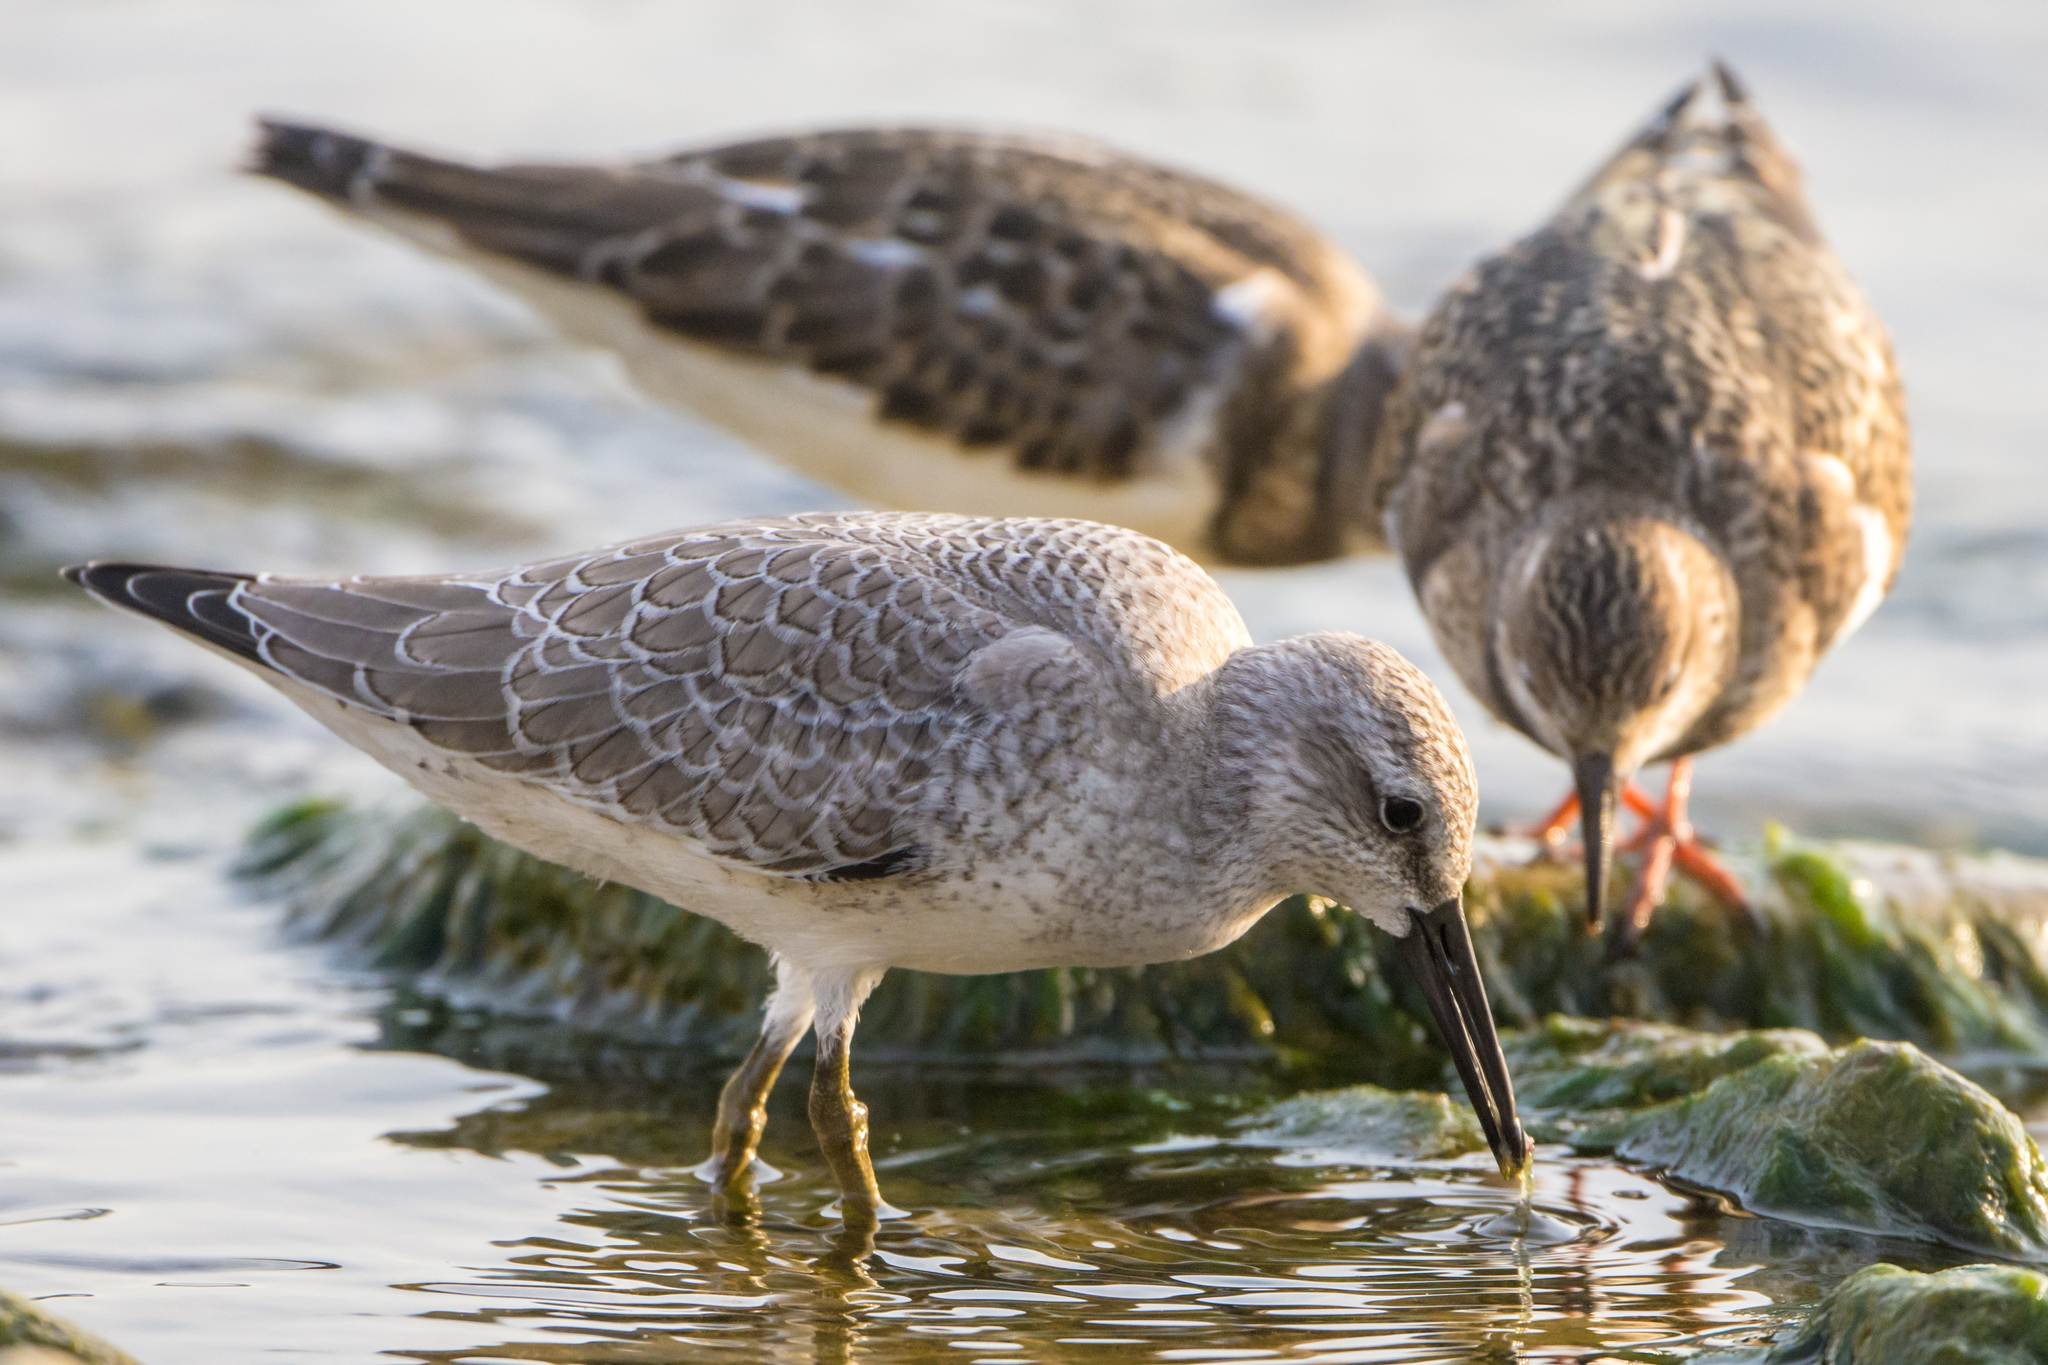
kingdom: Animalia
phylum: Chordata
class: Aves
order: Charadriiformes
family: Scolopacidae
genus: Arenaria
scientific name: Arenaria interpres
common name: Ruddy turnstone
